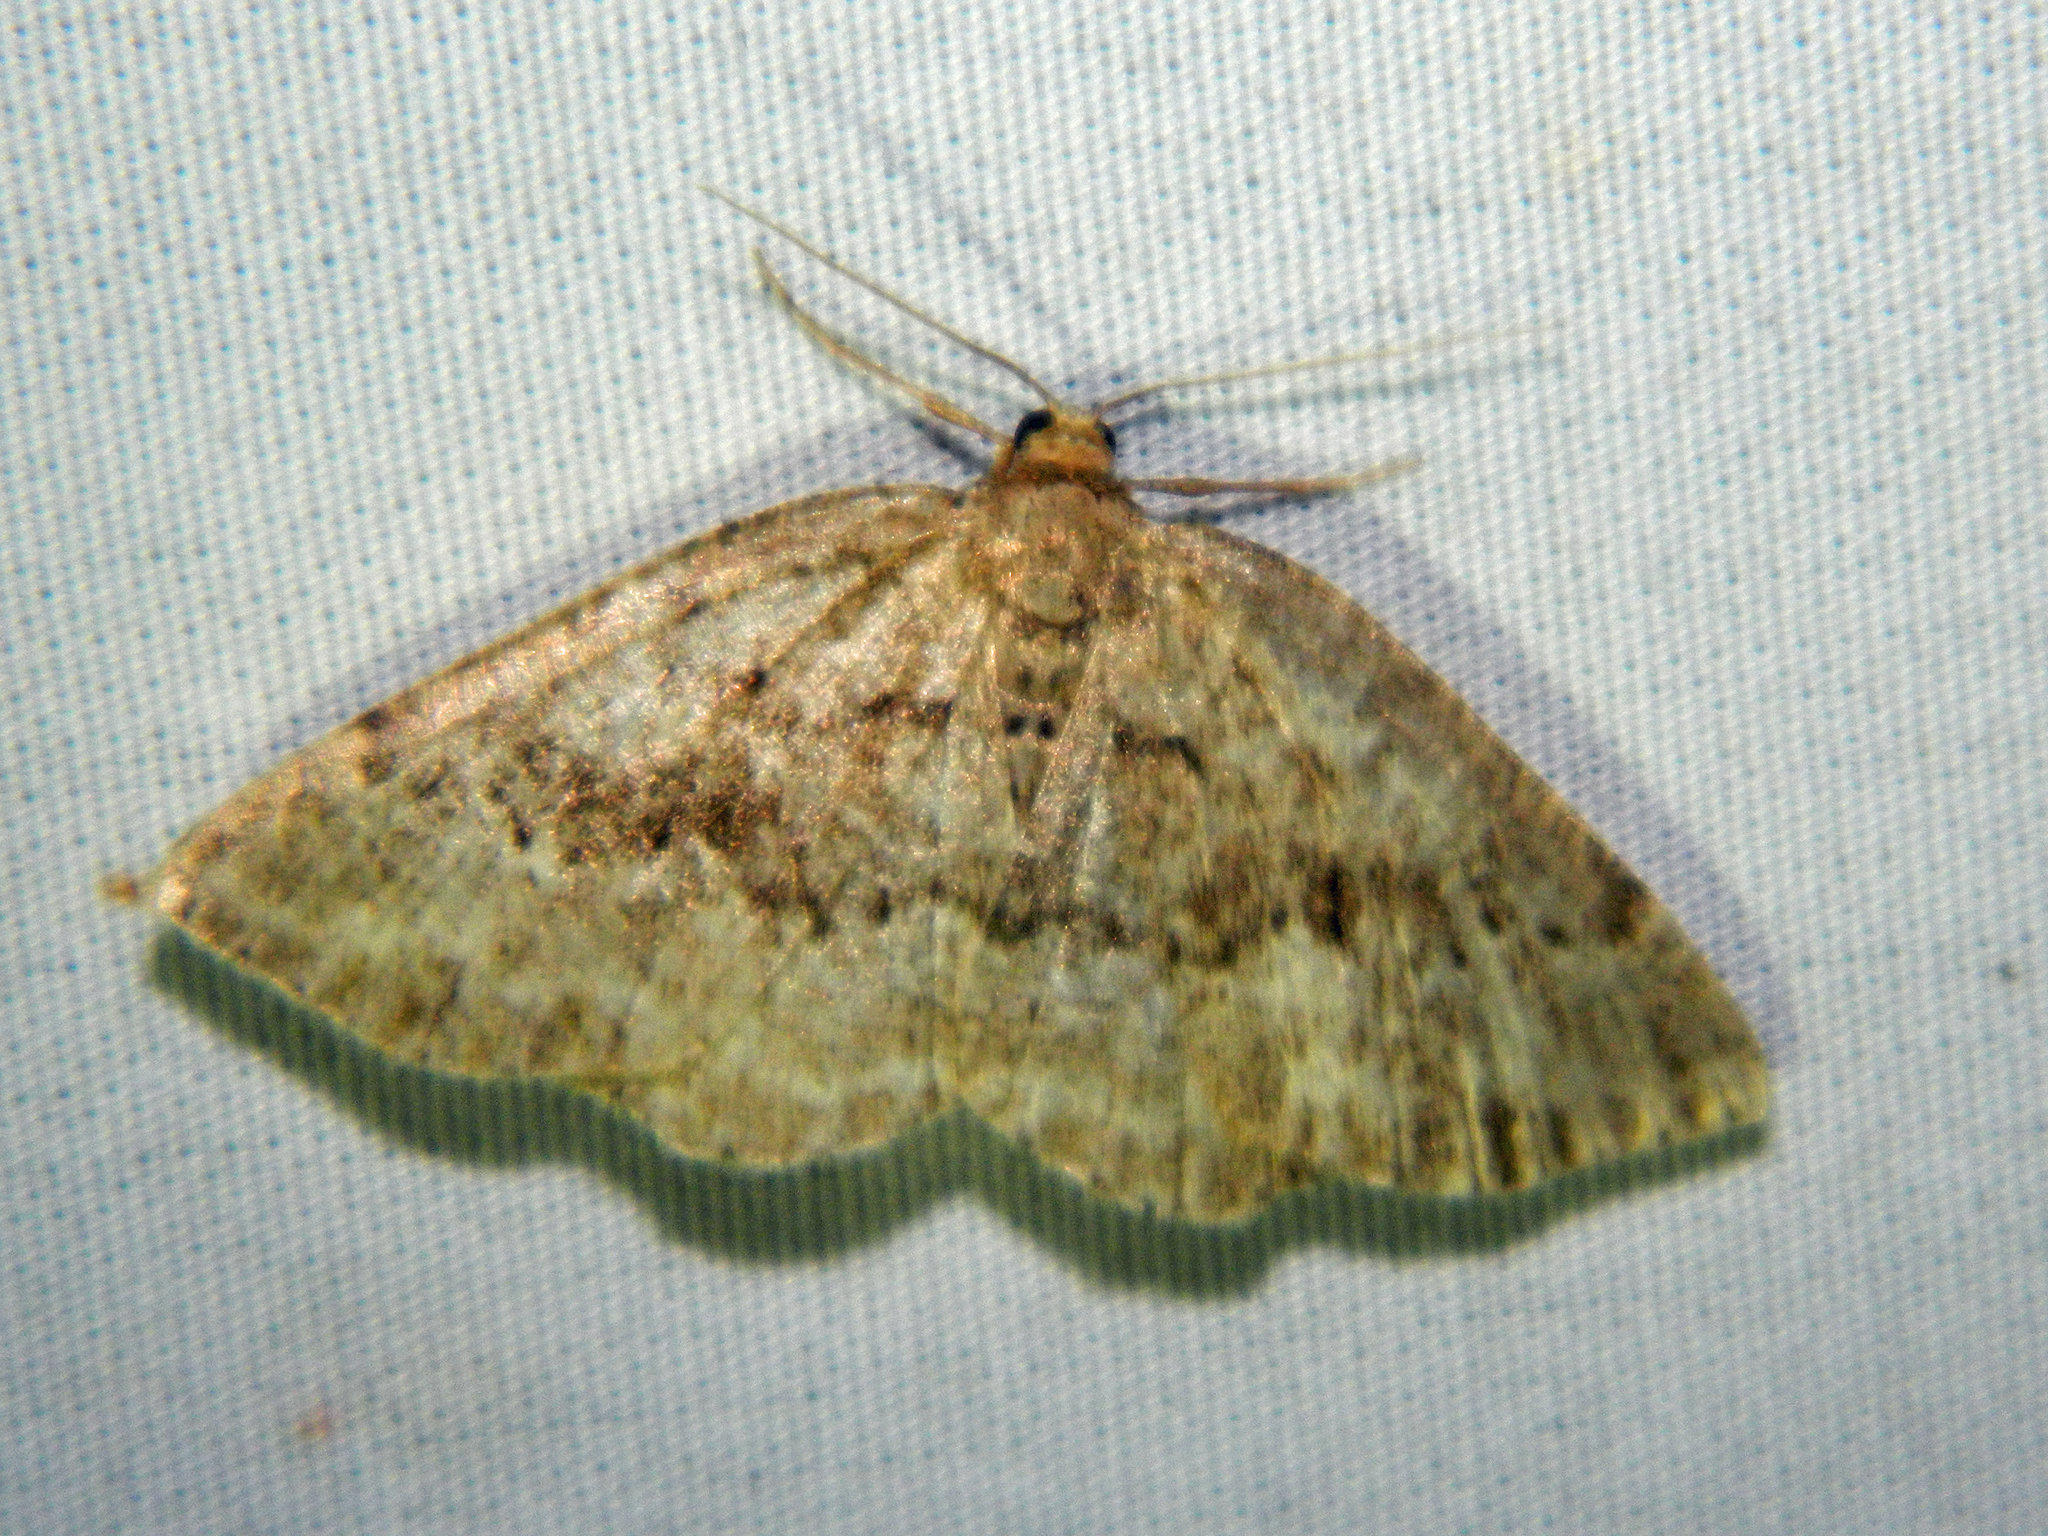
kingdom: Animalia
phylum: Arthropoda
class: Insecta
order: Lepidoptera
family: Geometridae
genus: Homochlodes
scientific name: Homochlodes fritillaria
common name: Pale homochlodes
